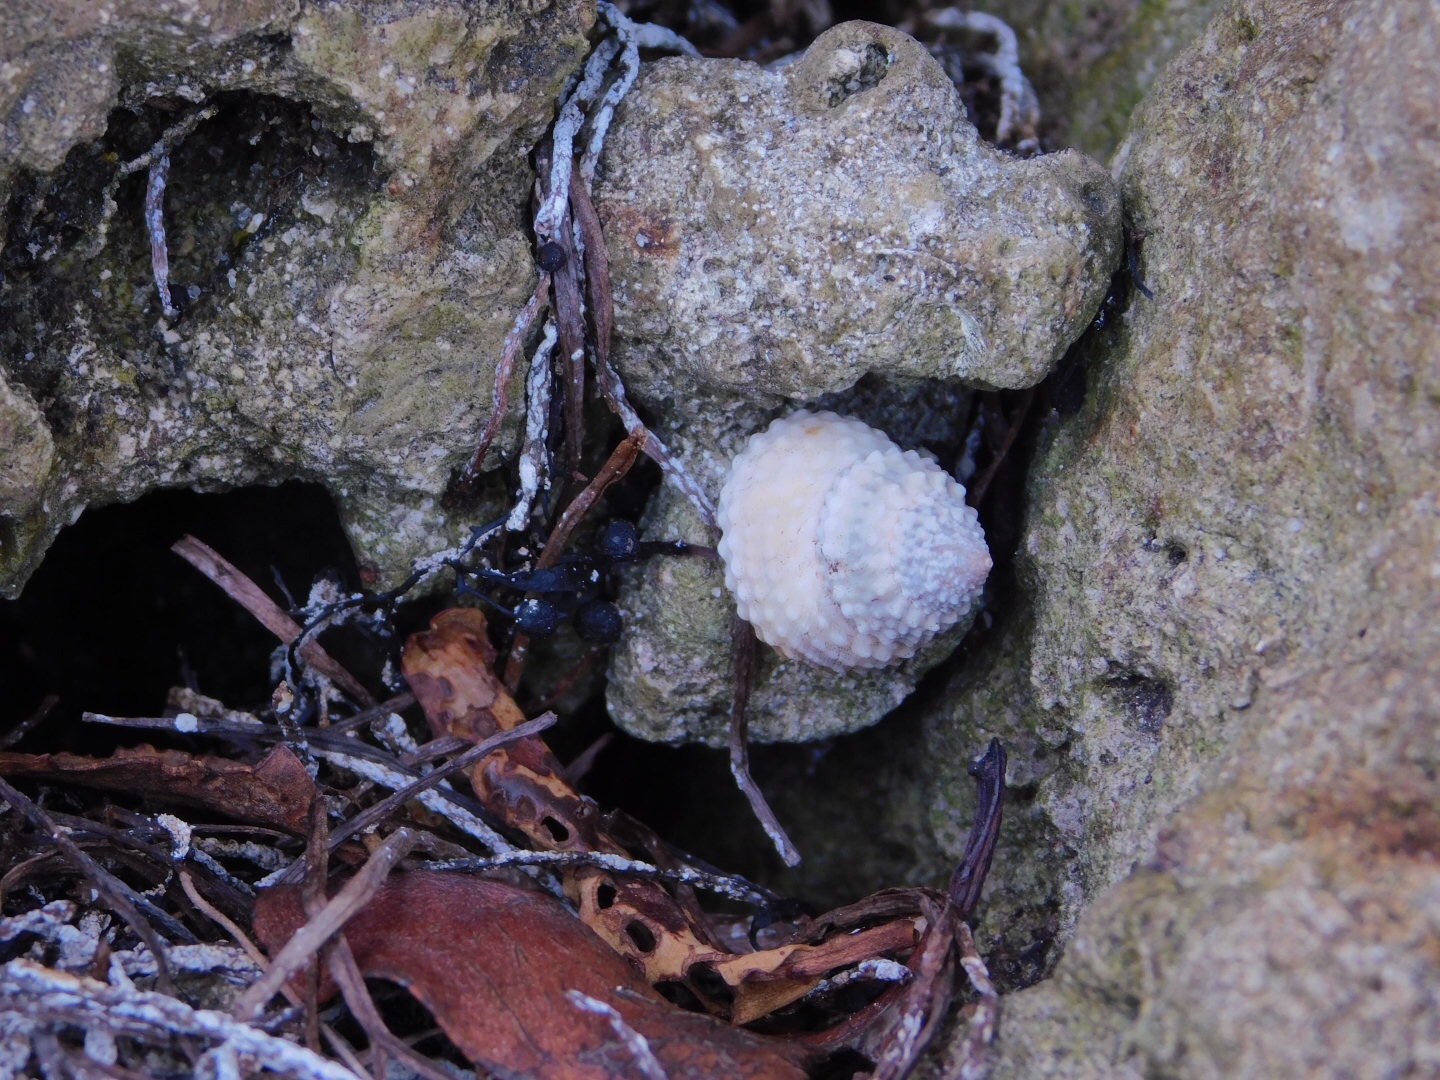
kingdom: Animalia
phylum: Mollusca
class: Gastropoda
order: Littorinimorpha
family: Littorinidae
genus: Cenchritis
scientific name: Cenchritis muricatus
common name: Beaded periwinkle
